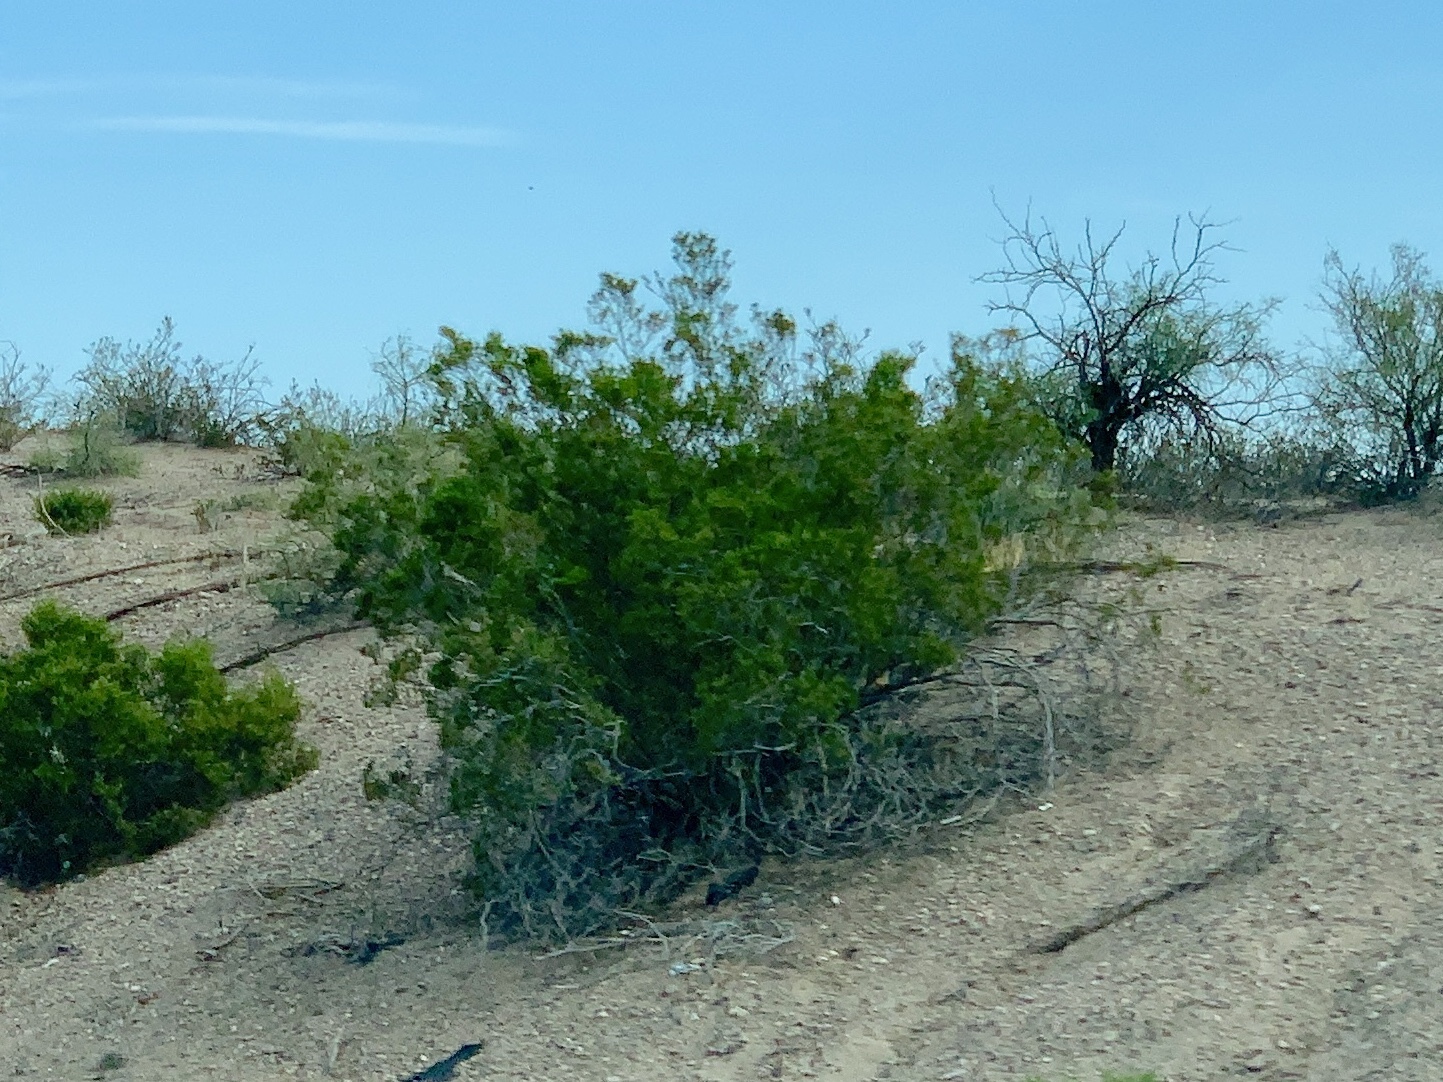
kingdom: Plantae
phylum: Tracheophyta
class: Magnoliopsida
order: Zygophyllales
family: Zygophyllaceae
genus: Larrea
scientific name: Larrea tridentata
